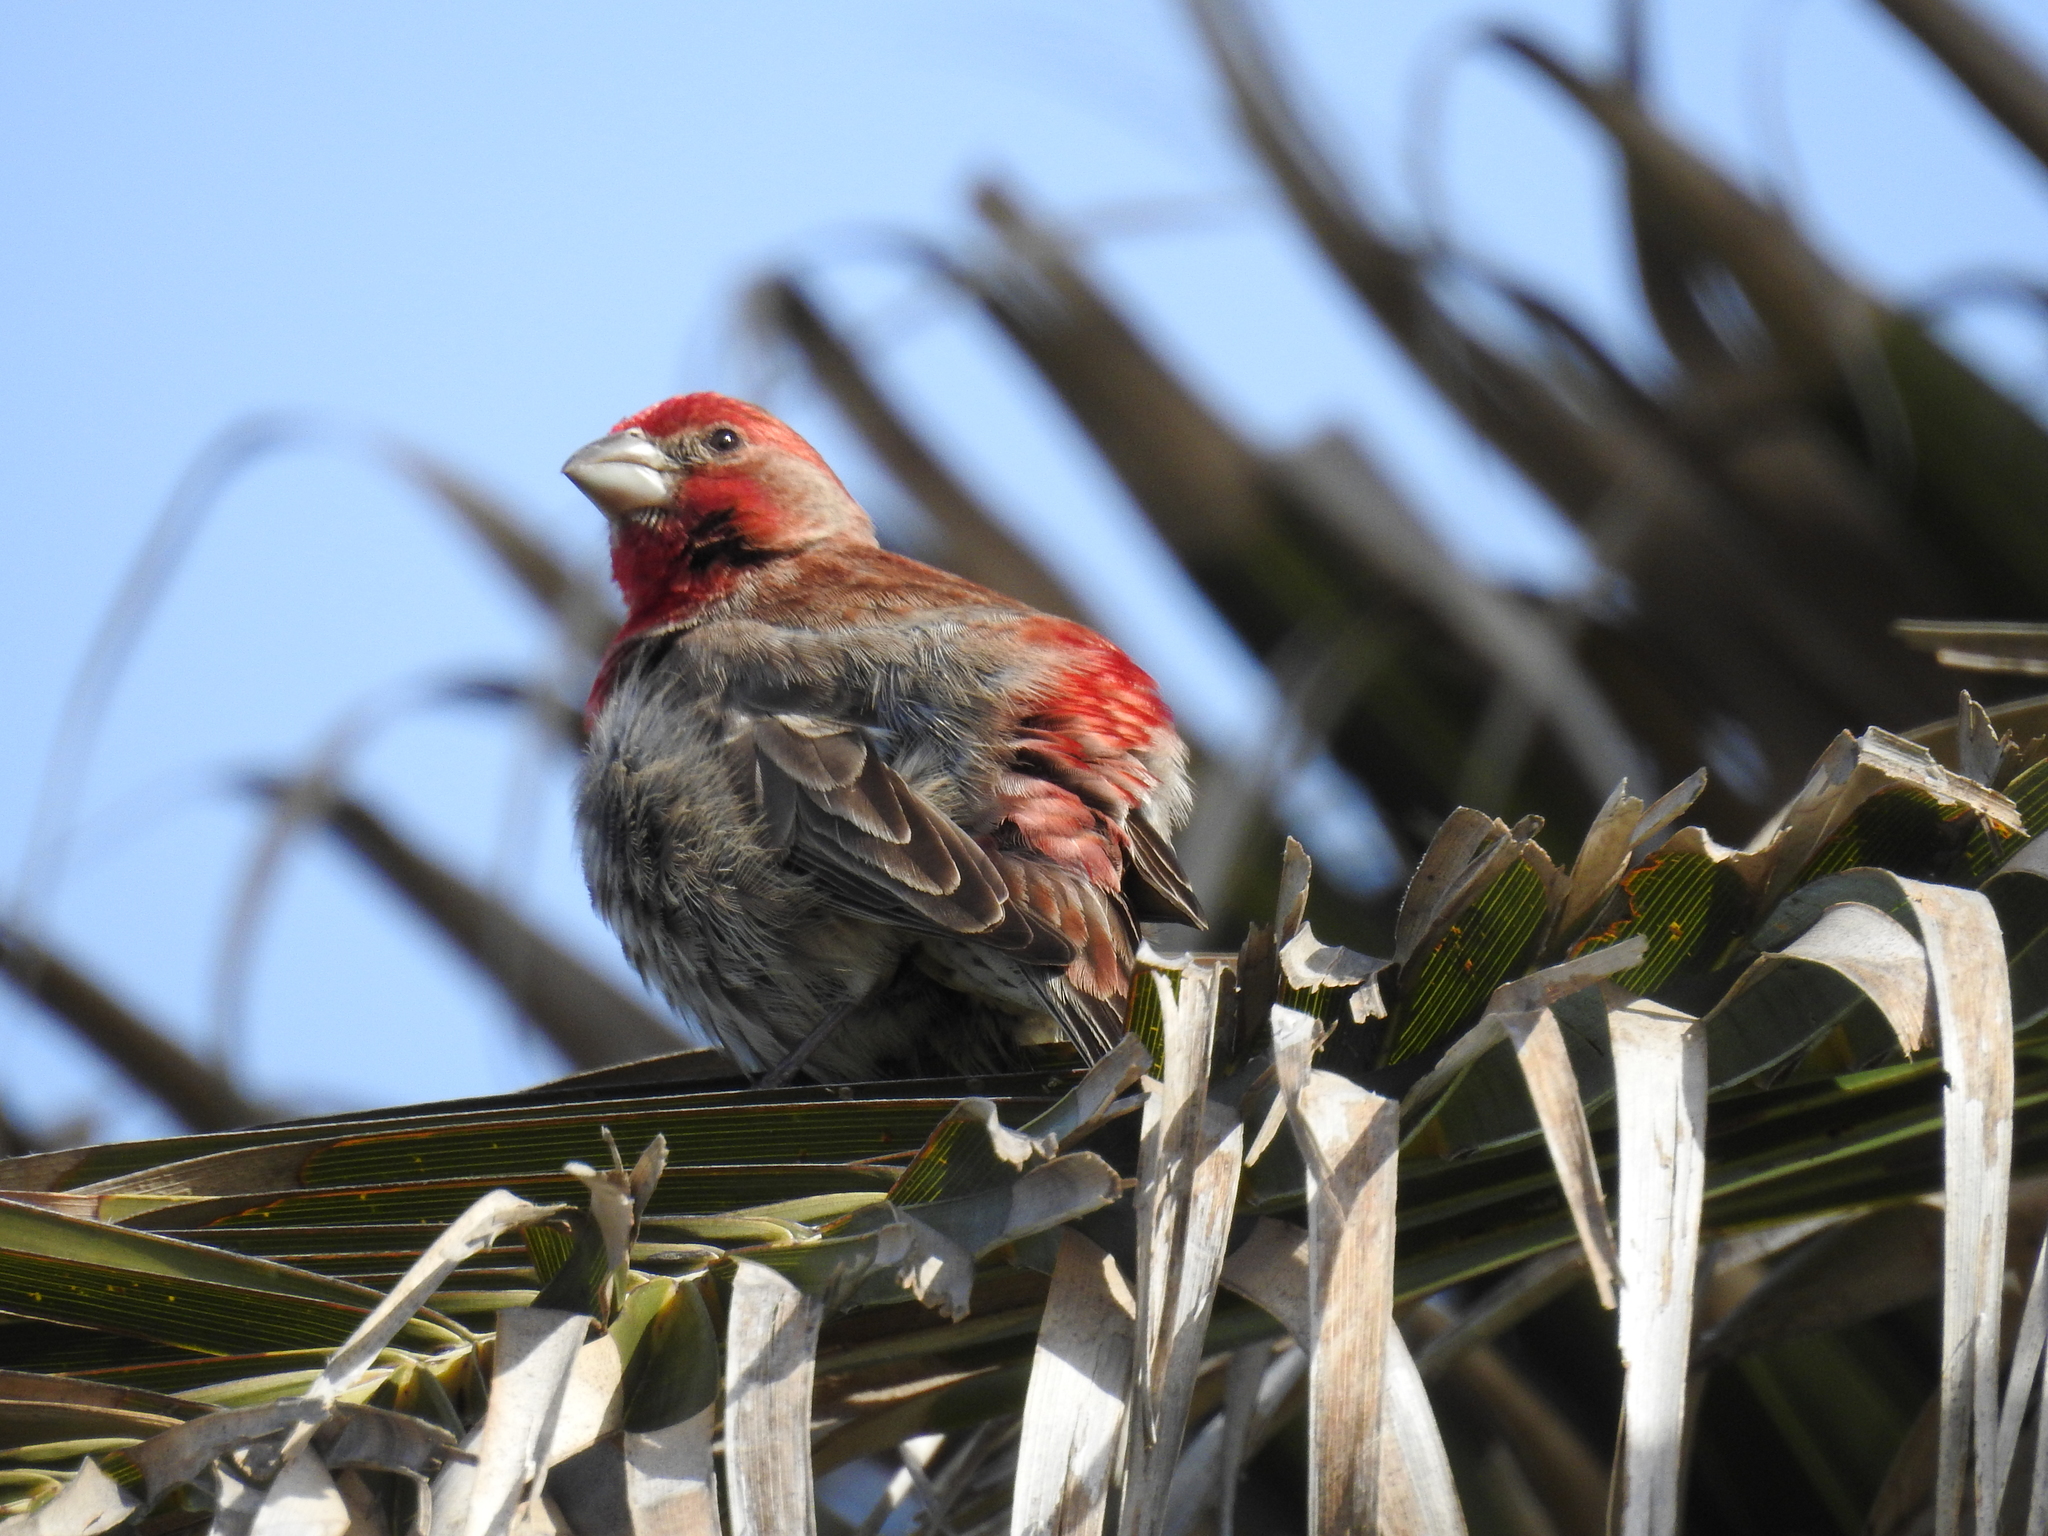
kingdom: Animalia
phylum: Chordata
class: Aves
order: Passeriformes
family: Fringillidae
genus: Haemorhous
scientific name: Haemorhous mexicanus
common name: House finch
